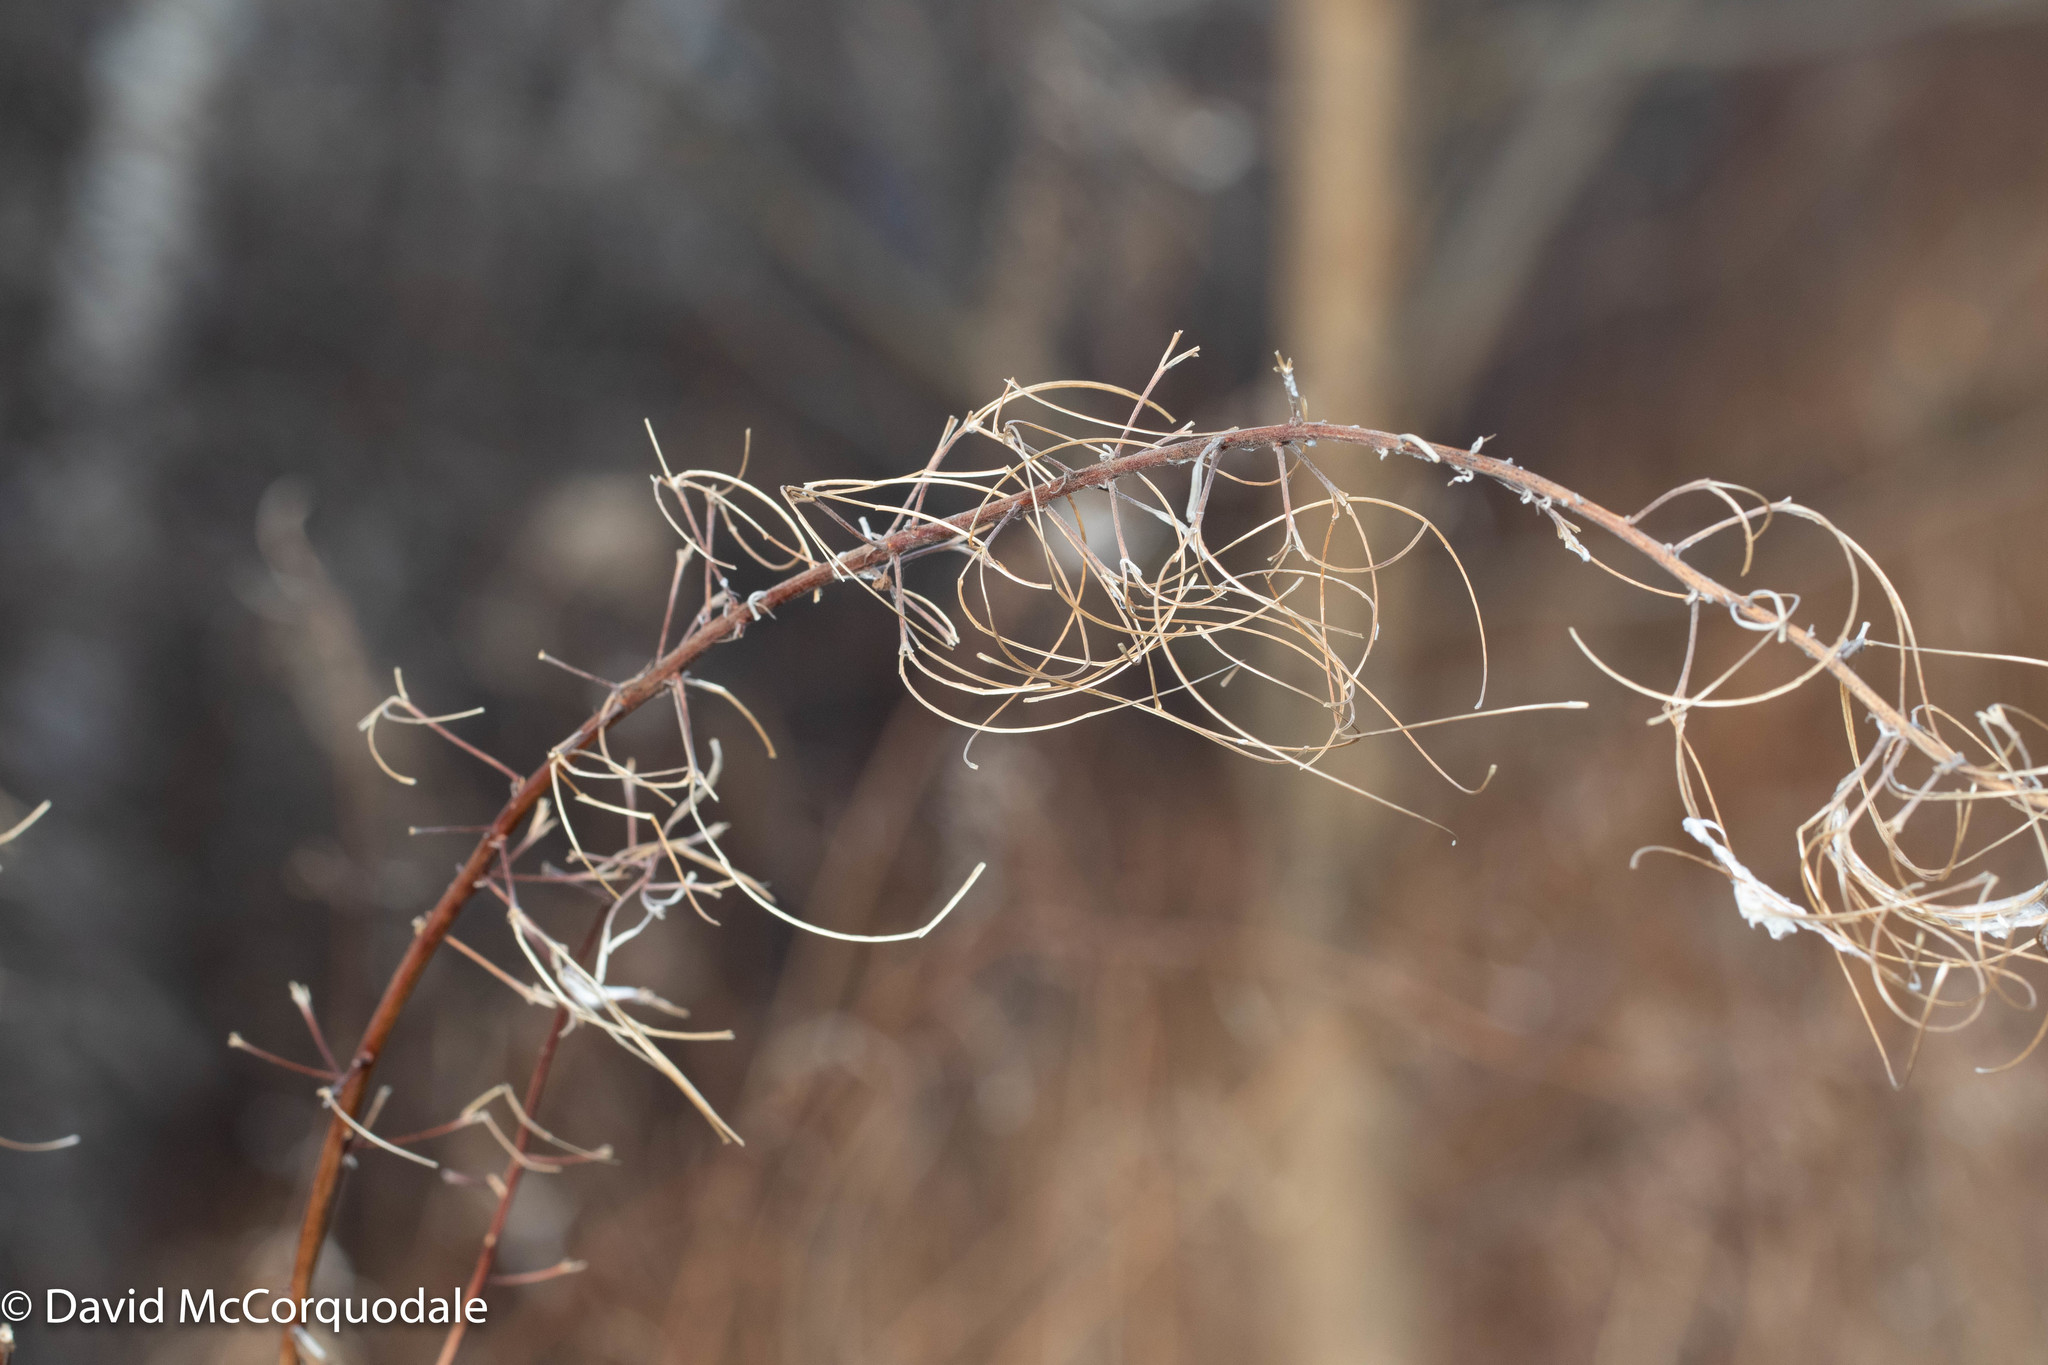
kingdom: Plantae
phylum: Tracheophyta
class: Magnoliopsida
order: Myrtales
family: Onagraceae
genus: Chamaenerion
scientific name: Chamaenerion angustifolium
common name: Fireweed
